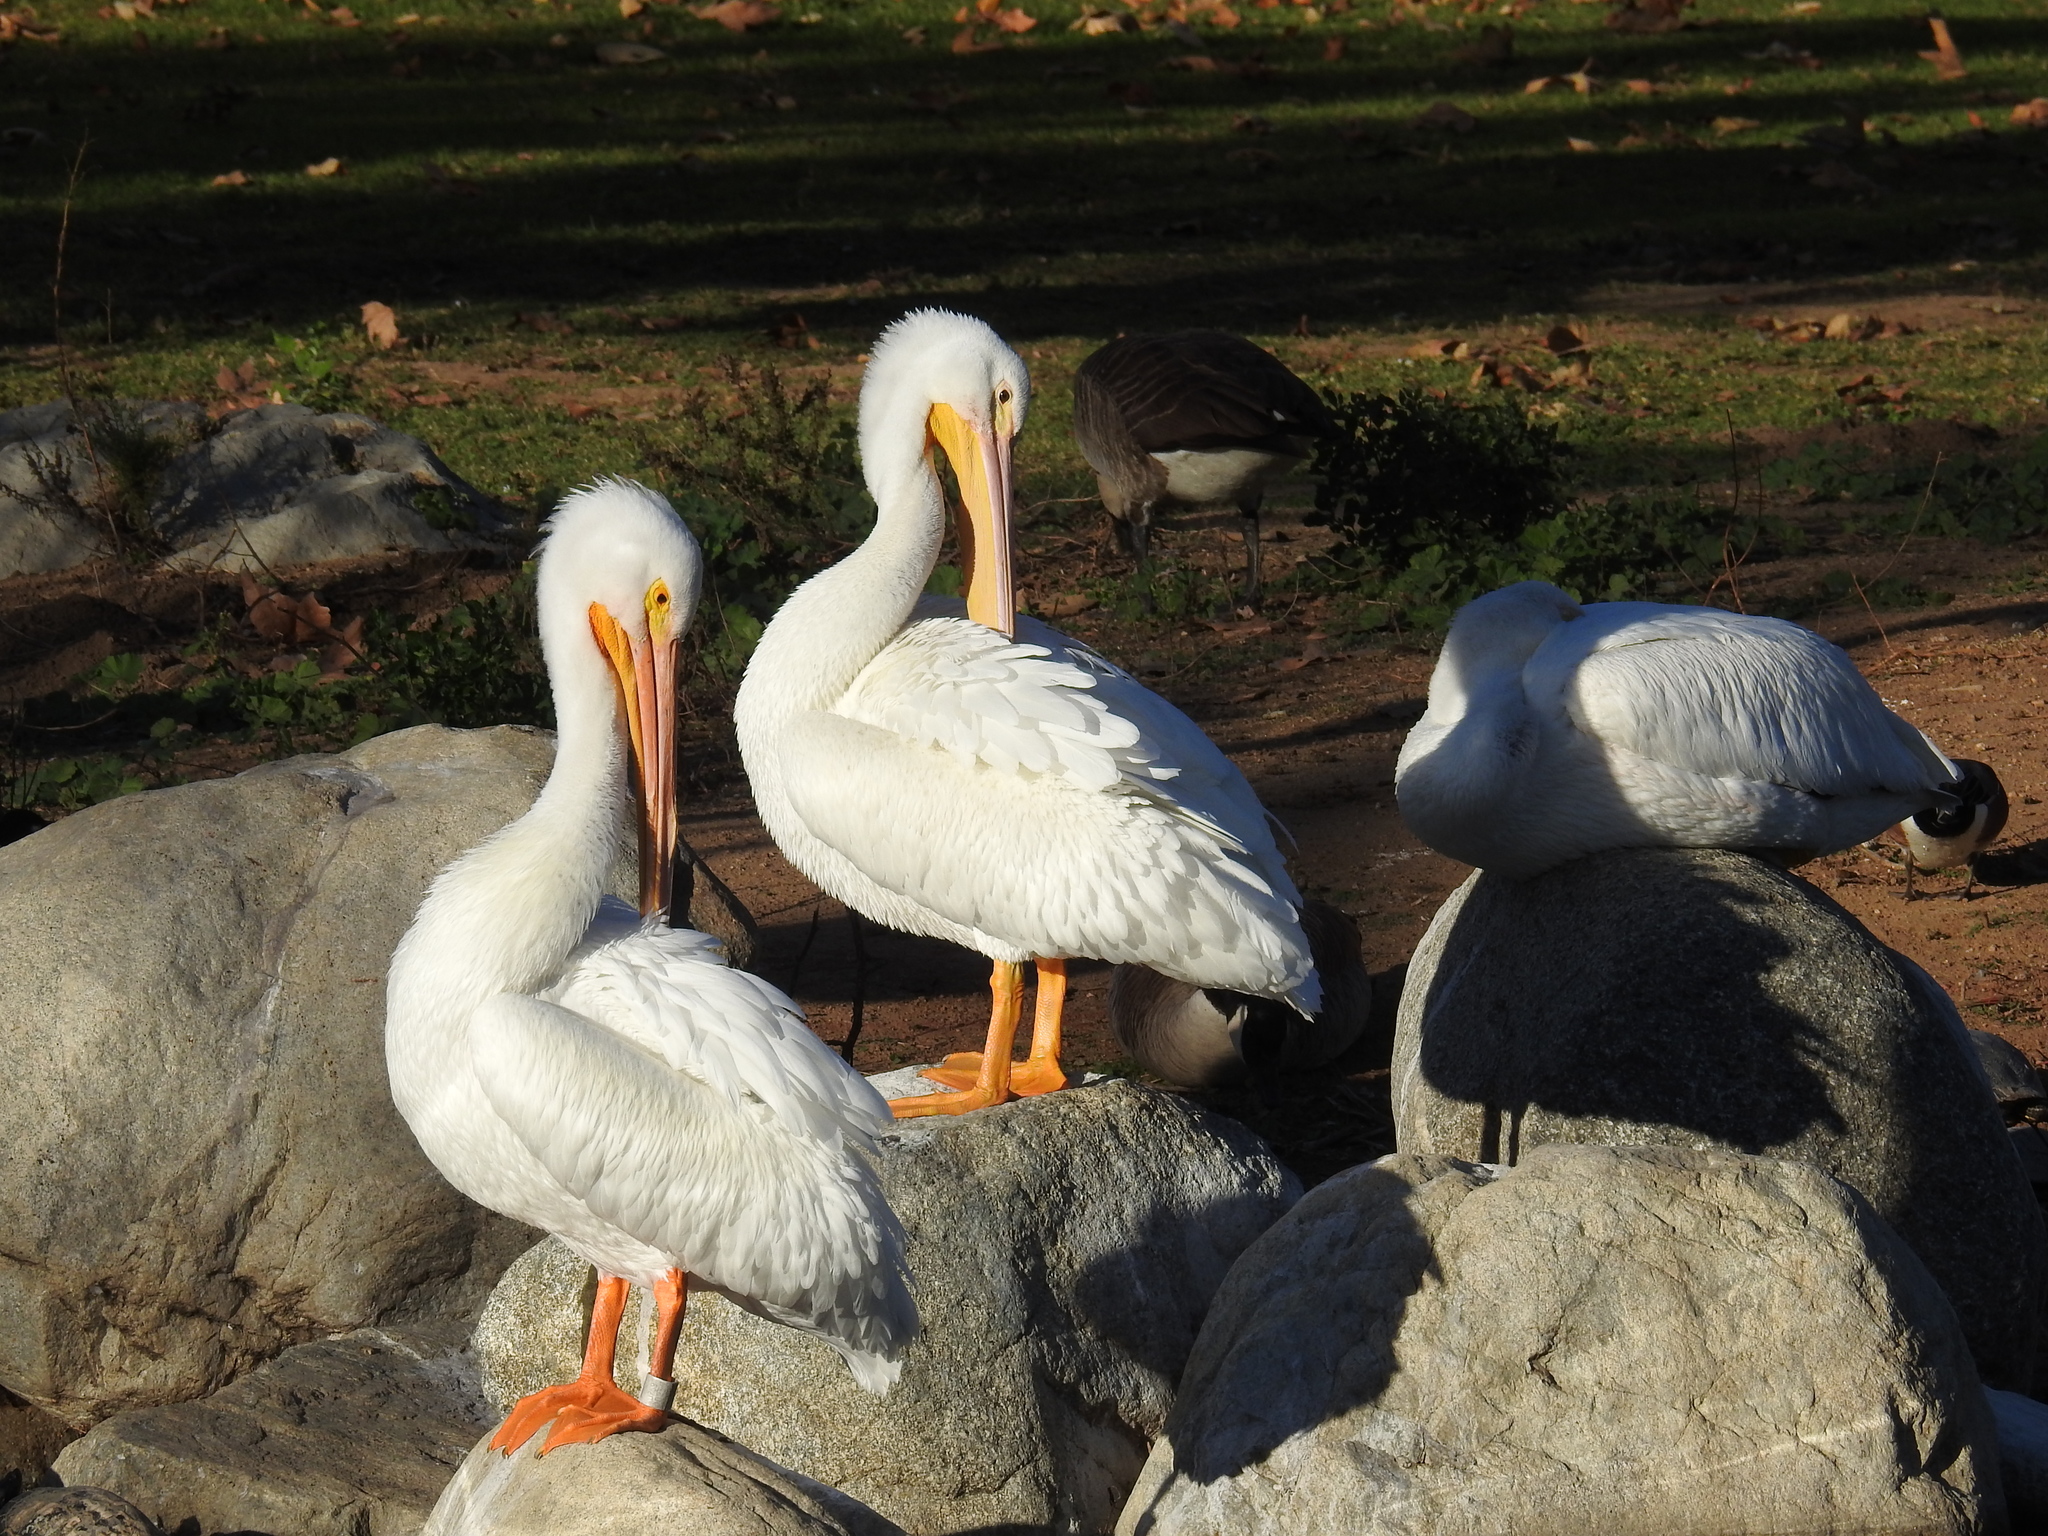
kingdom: Animalia
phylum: Chordata
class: Aves
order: Pelecaniformes
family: Pelecanidae
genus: Pelecanus
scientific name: Pelecanus erythrorhynchos
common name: American white pelican
